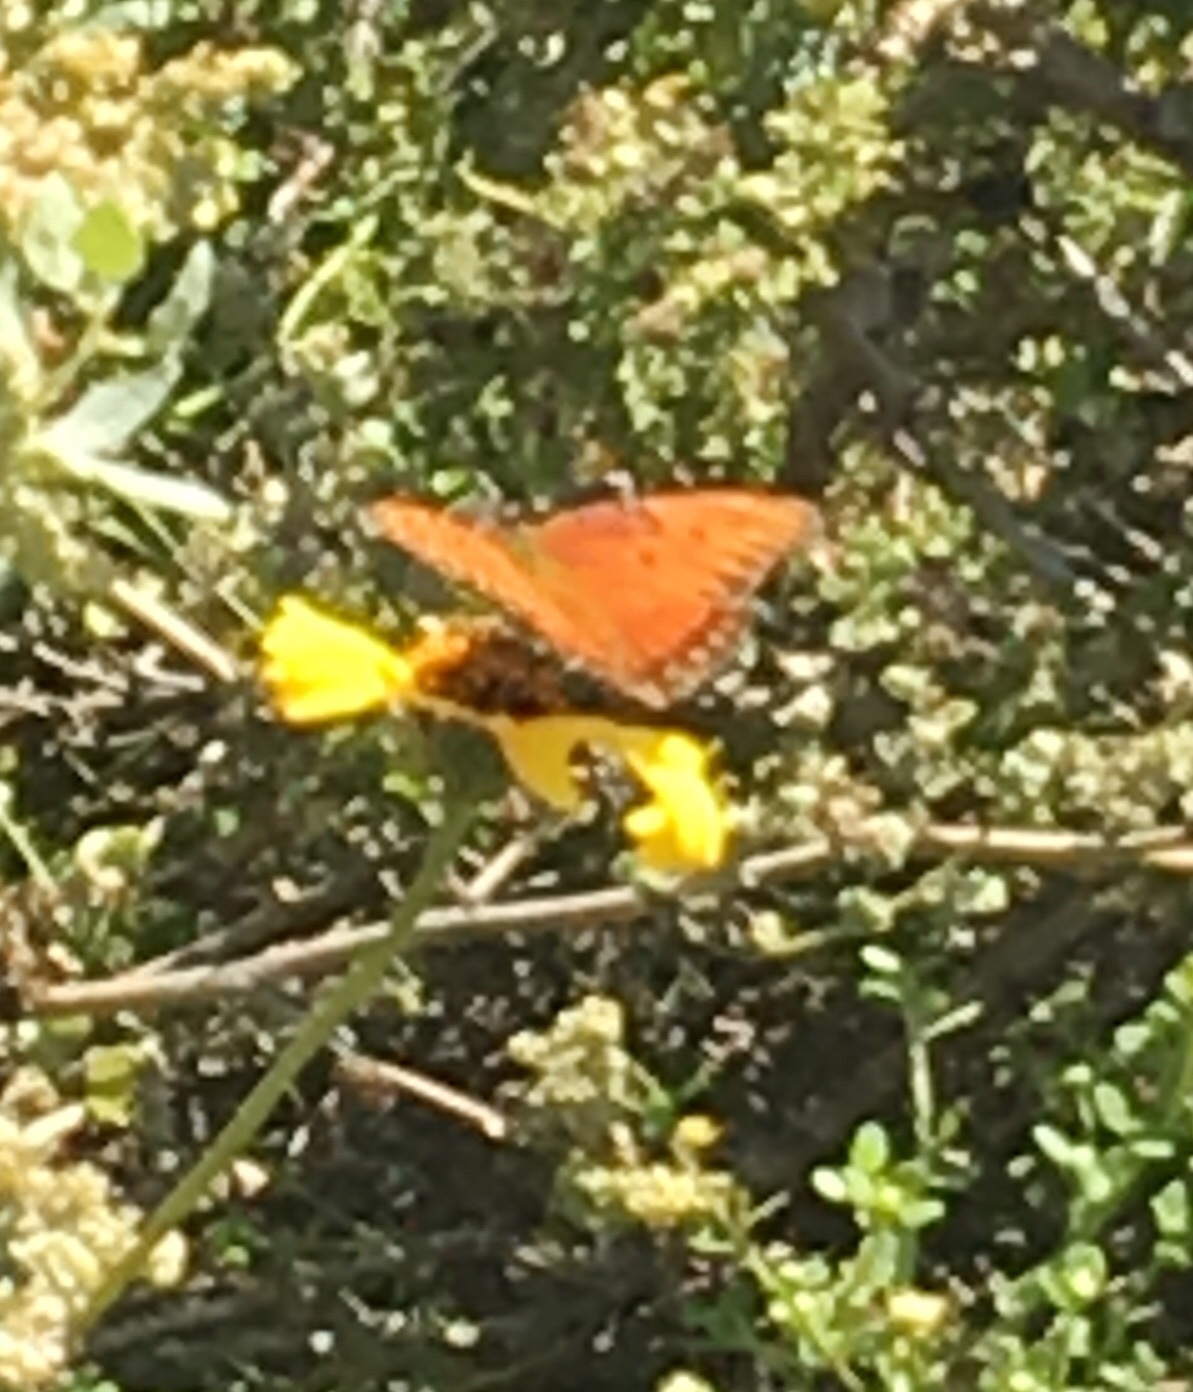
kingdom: Animalia
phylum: Arthropoda
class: Insecta
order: Lepidoptera
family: Nymphalidae
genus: Dione
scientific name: Dione vanillae
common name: Gulf fritillary
